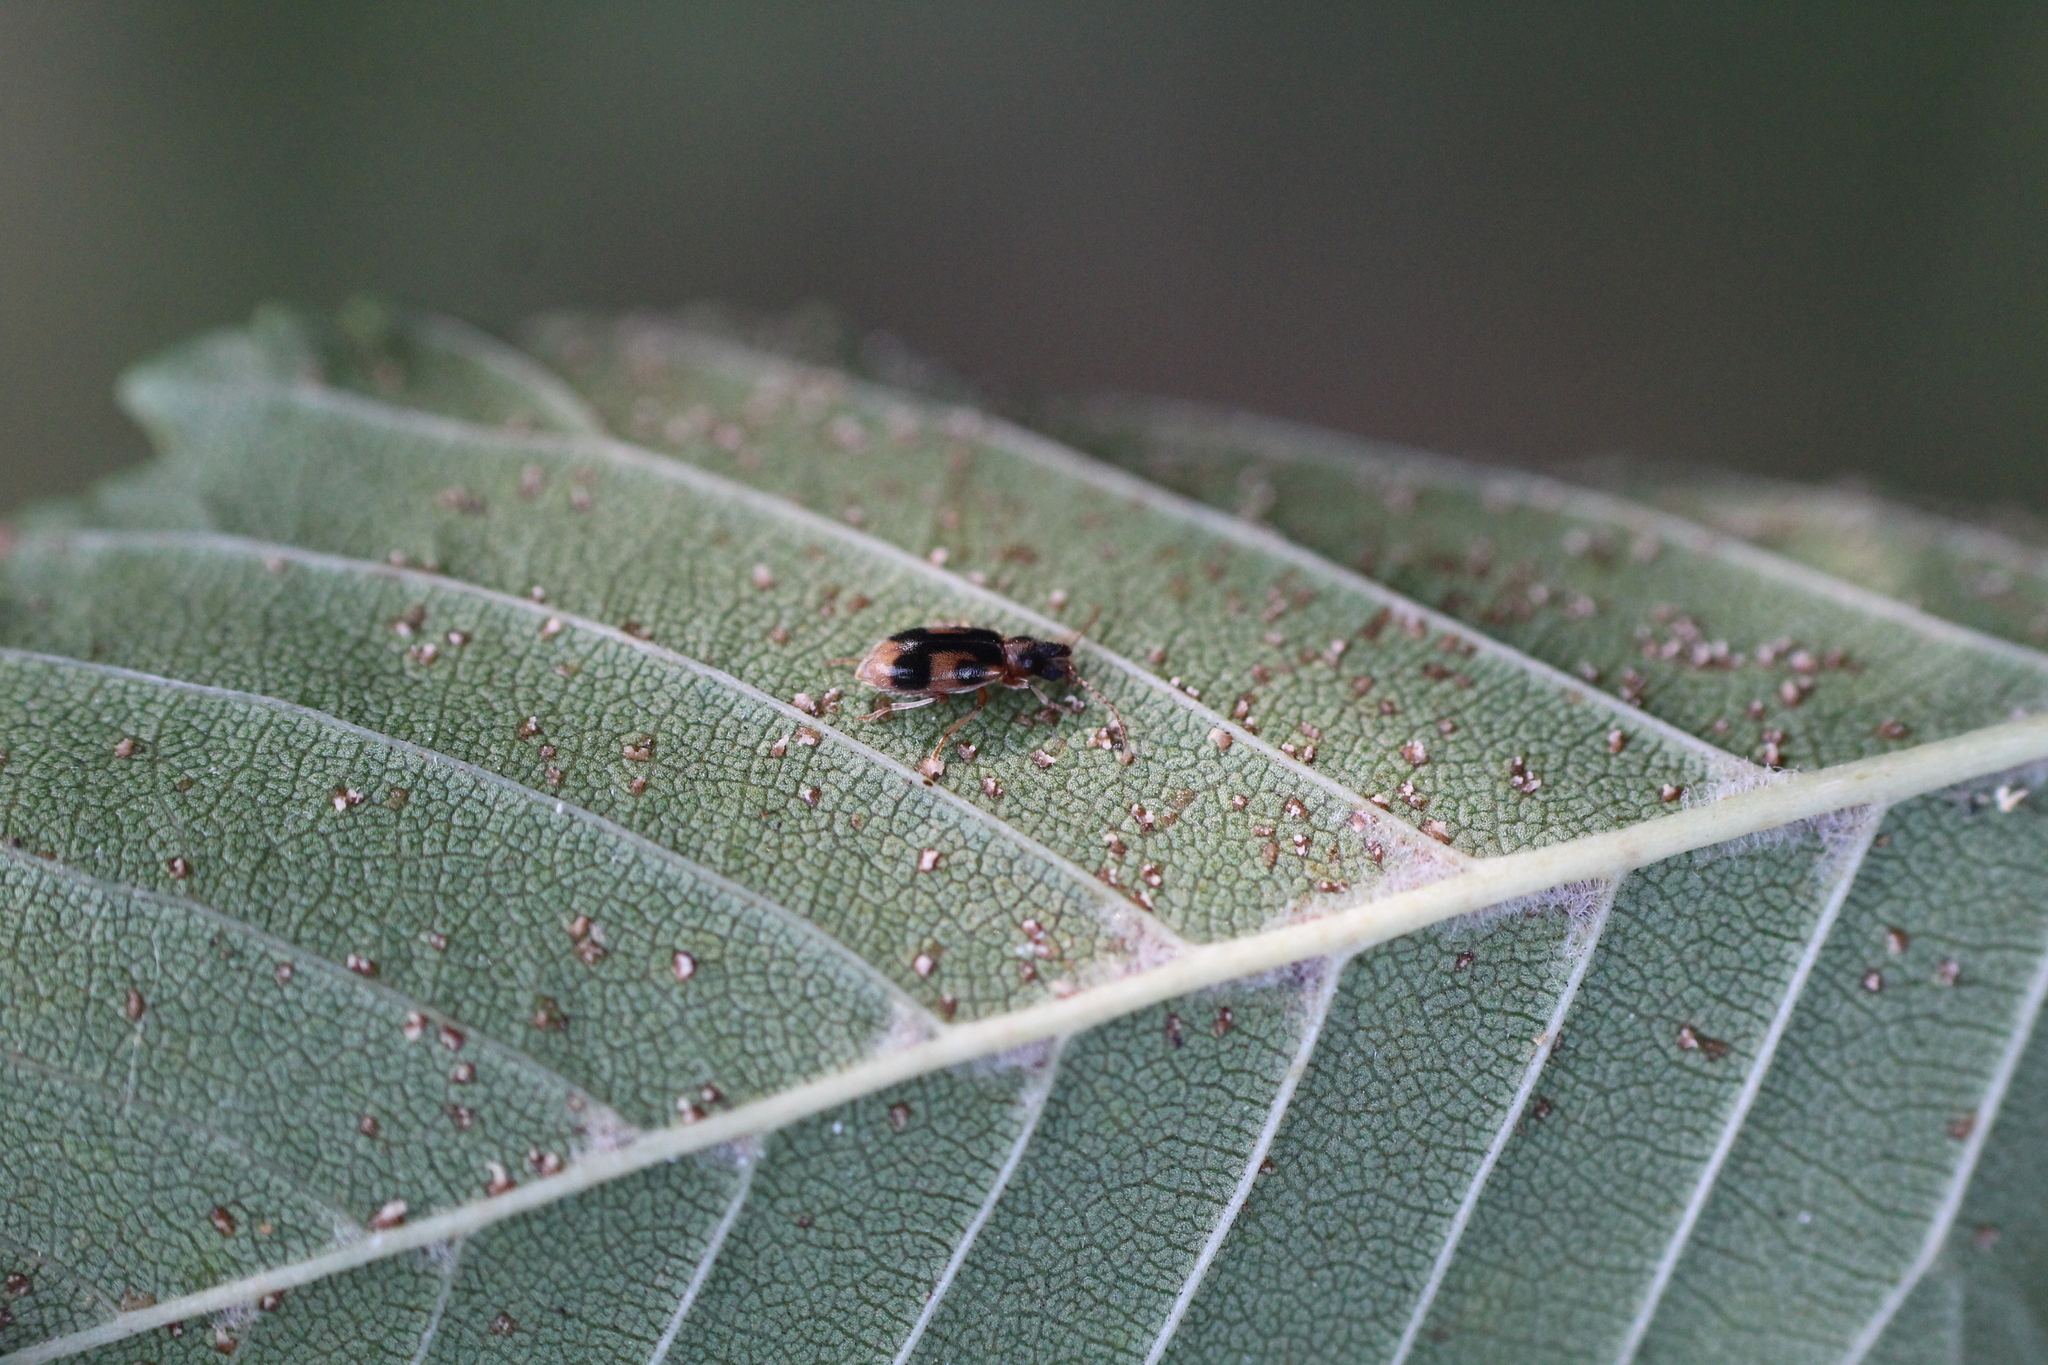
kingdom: Animalia
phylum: Arthropoda
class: Insecta
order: Coleoptera
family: Anthicidae
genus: Notoxus
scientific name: Notoxus monoceros
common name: Monoceros beetle
